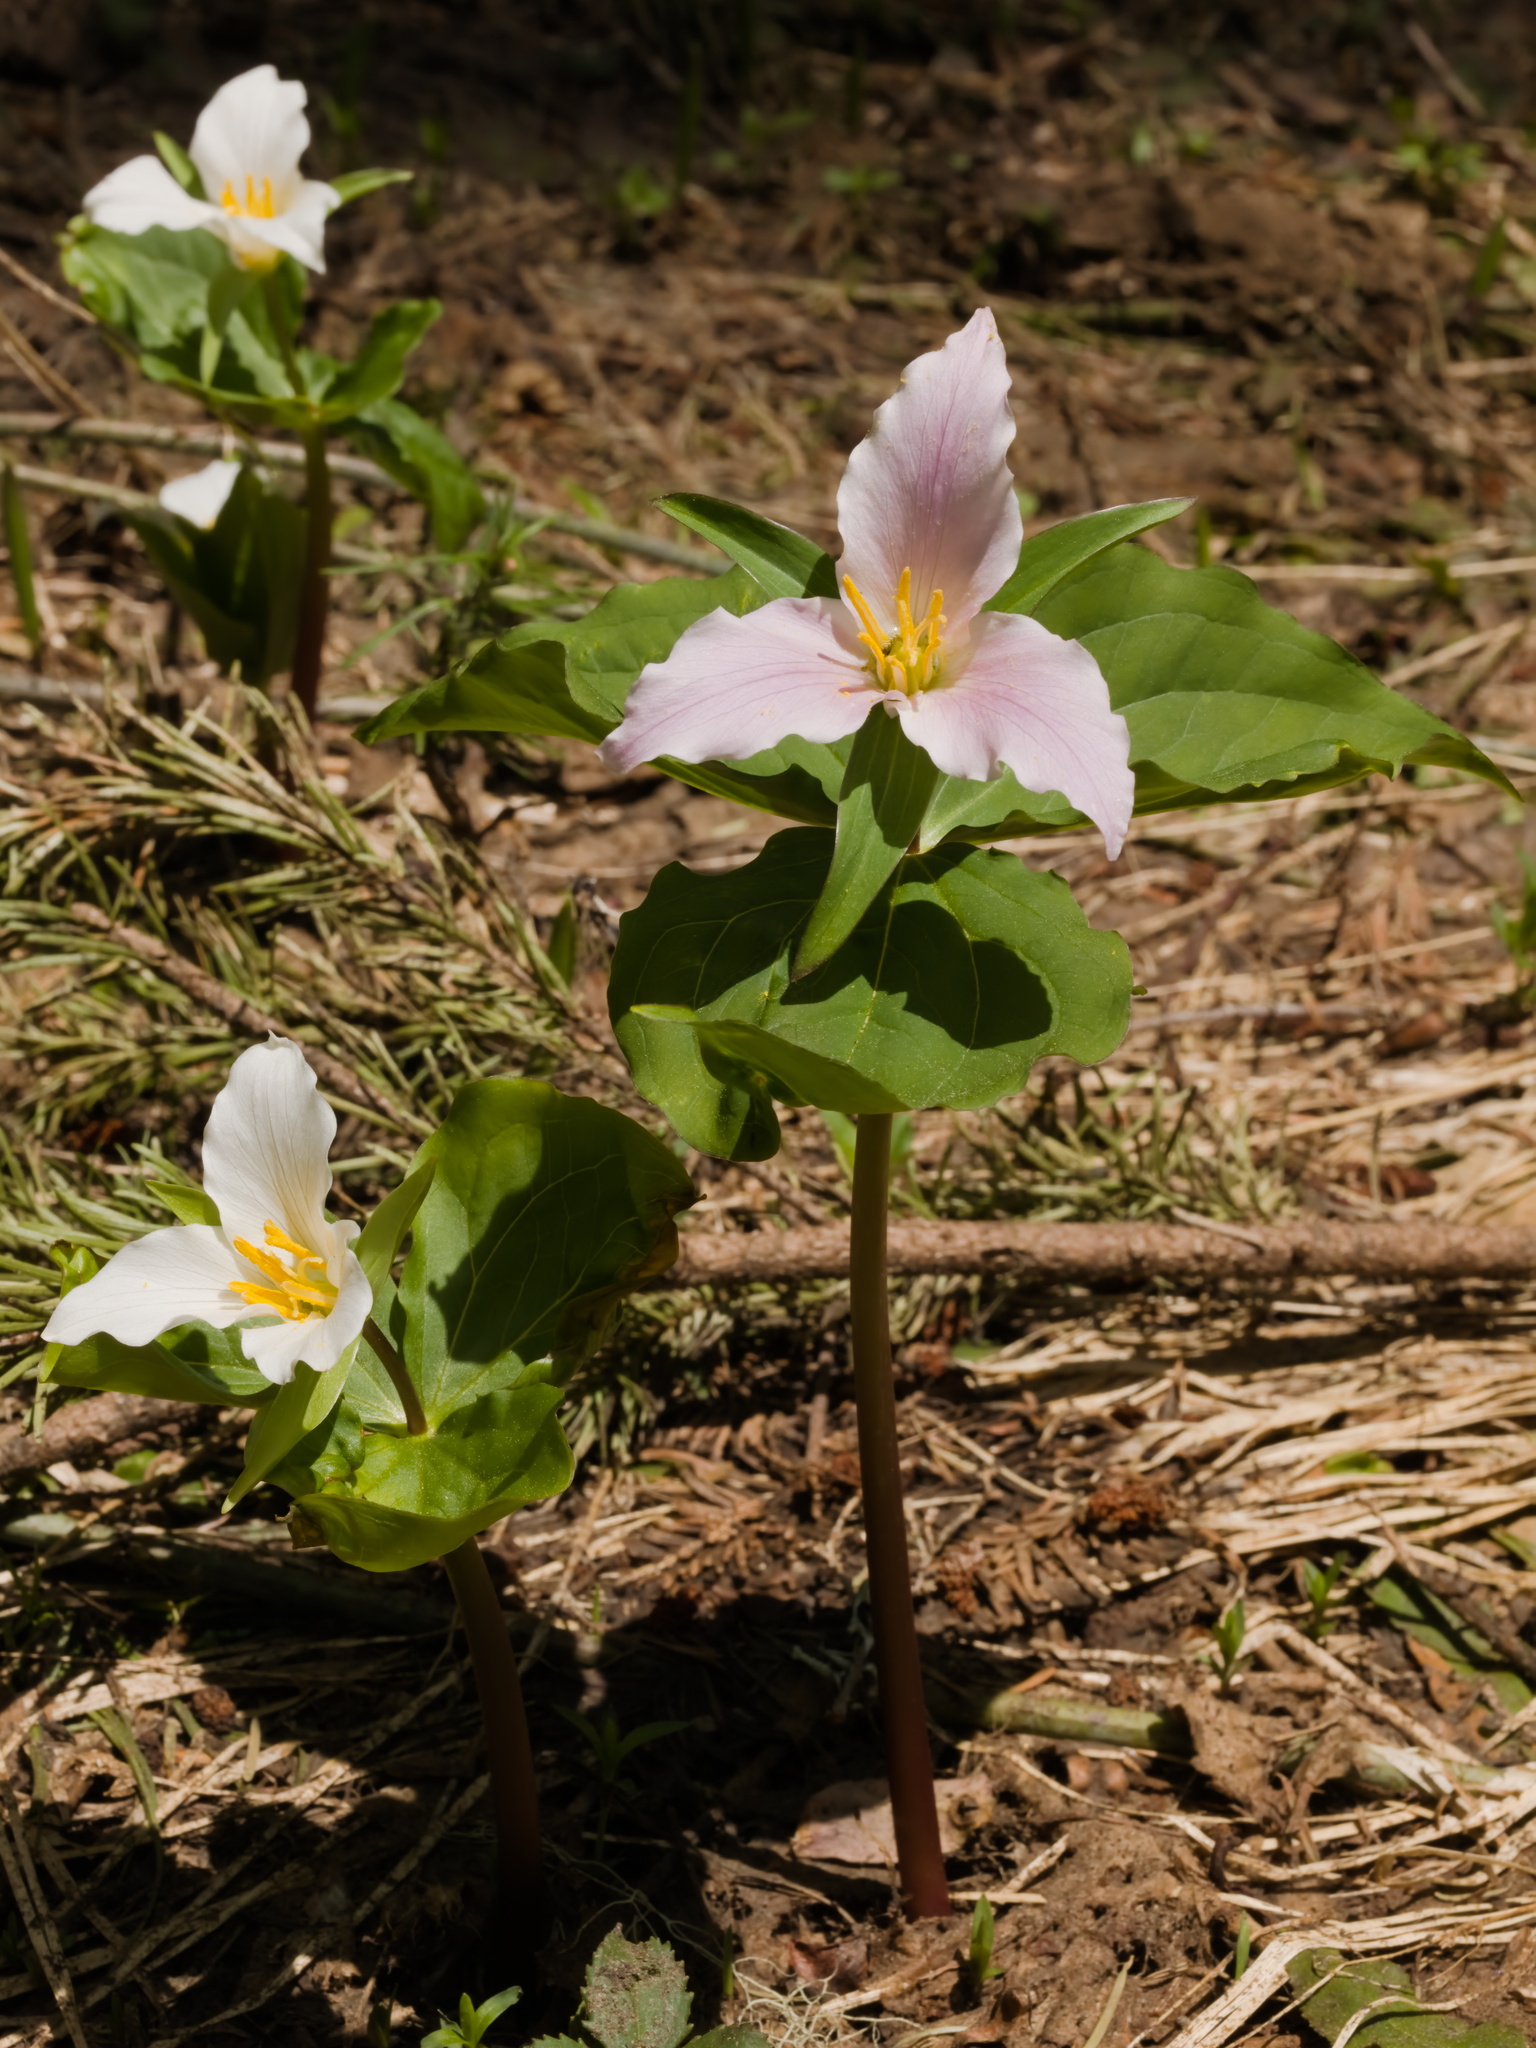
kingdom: Plantae
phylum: Tracheophyta
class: Liliopsida
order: Liliales
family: Melanthiaceae
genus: Trillium
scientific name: Trillium ovatum
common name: Pacific trillium
